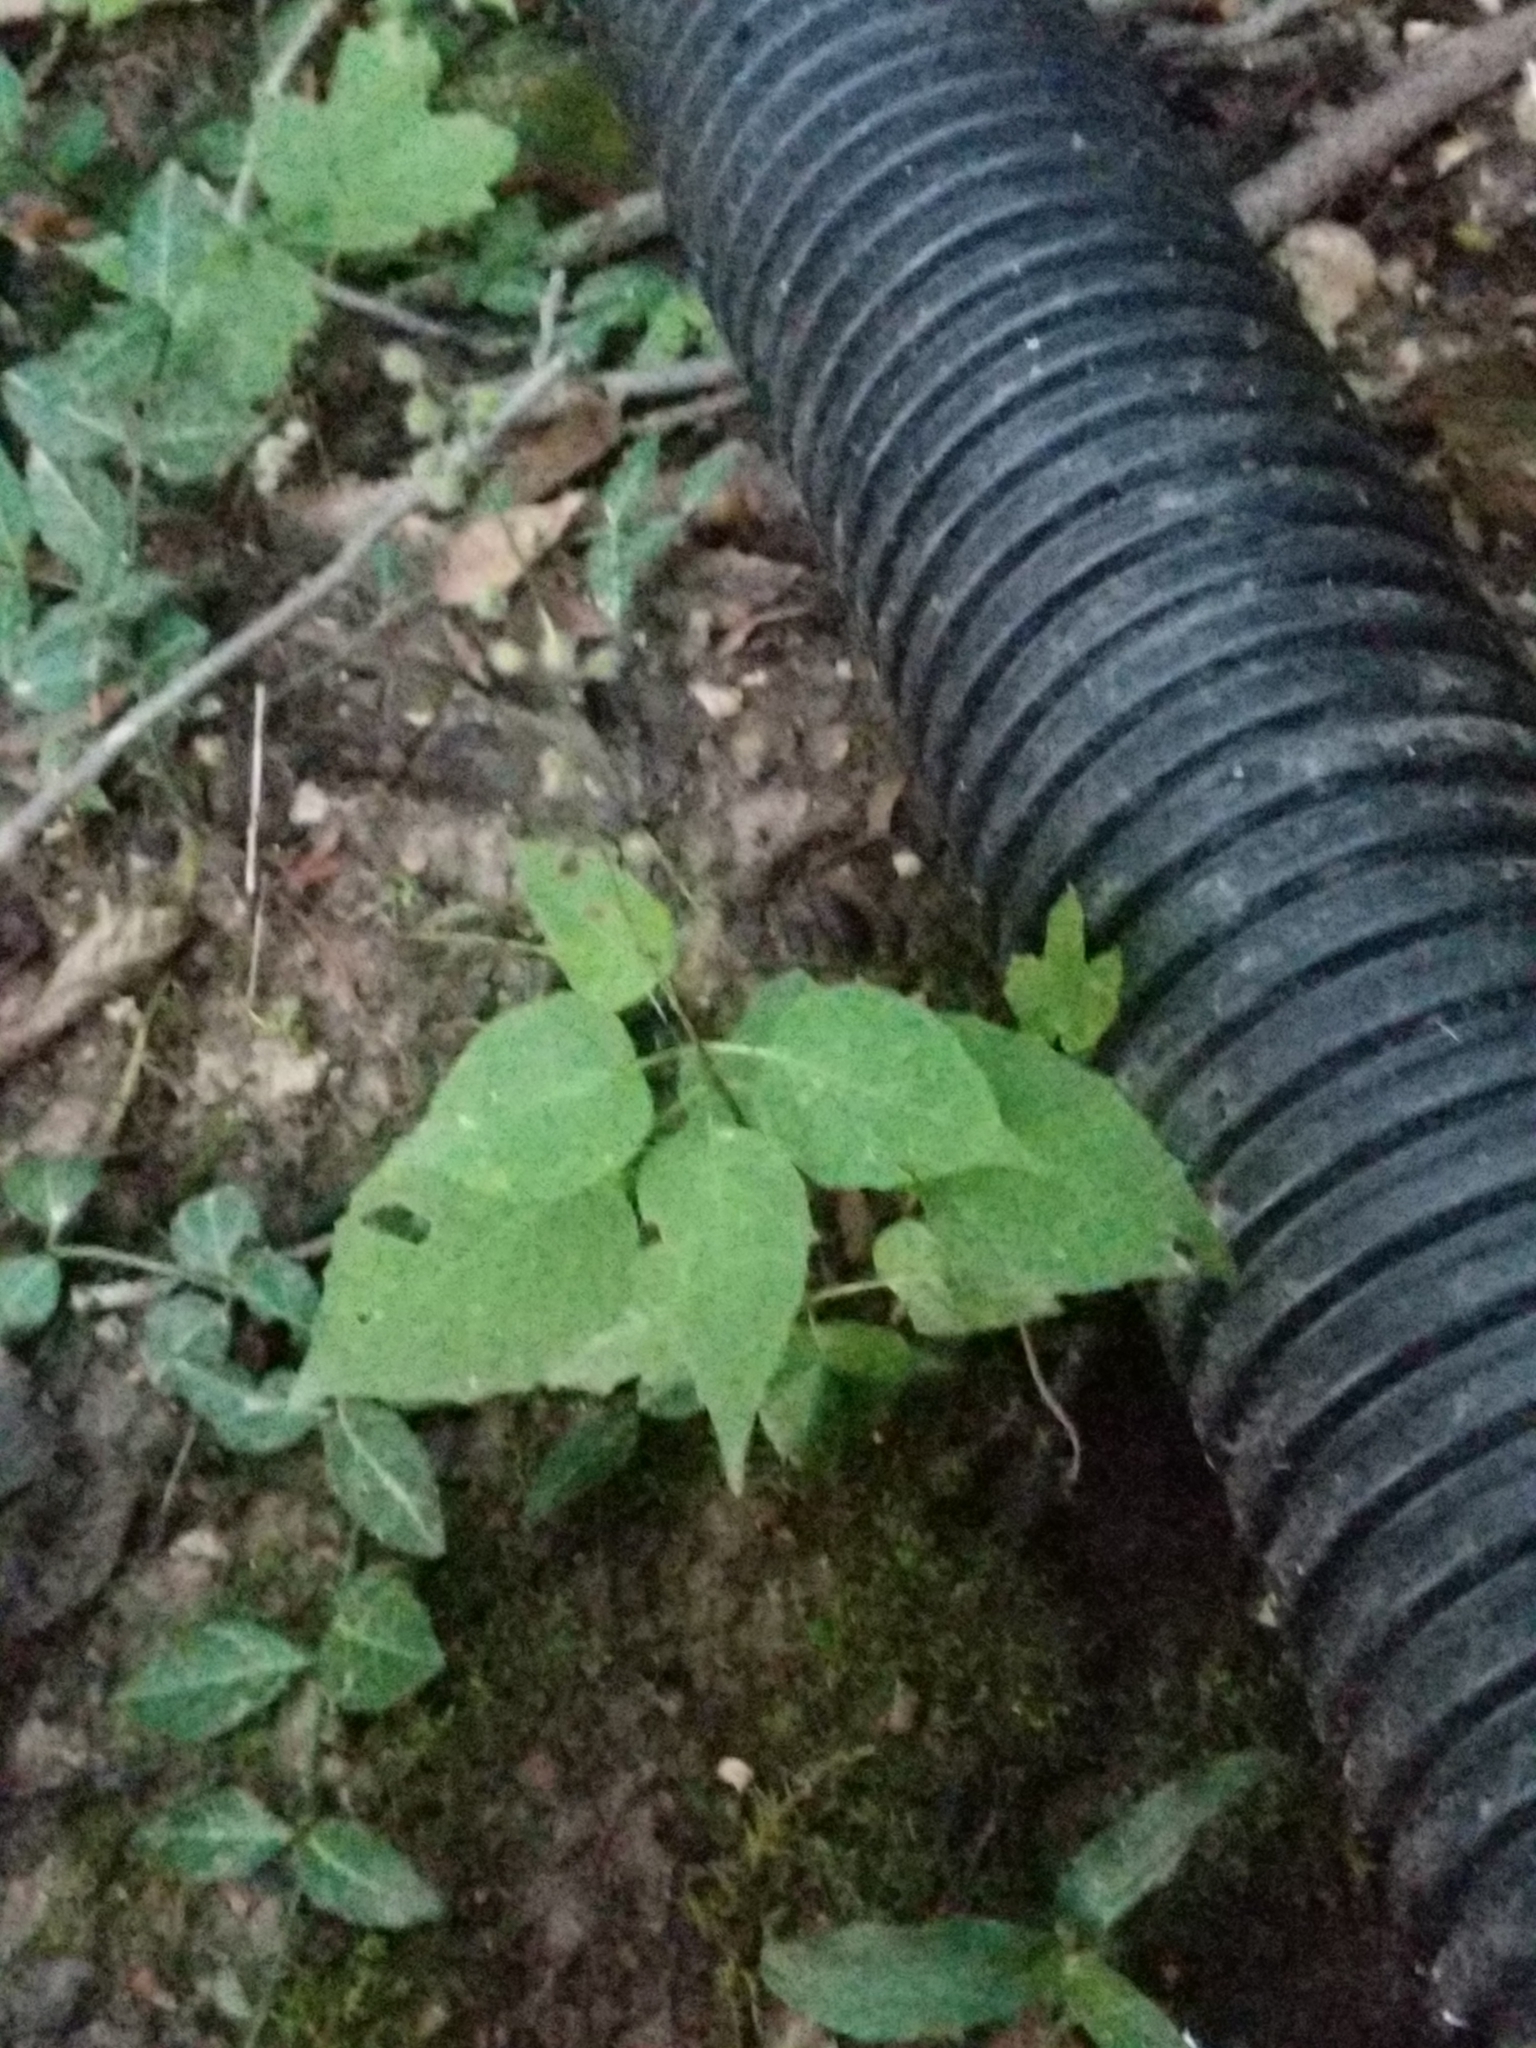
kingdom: Plantae
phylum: Tracheophyta
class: Magnoliopsida
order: Myrtales
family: Onagraceae
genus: Circaea
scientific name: Circaea canadensis
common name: Broad-leaved enchanter's nightshade
